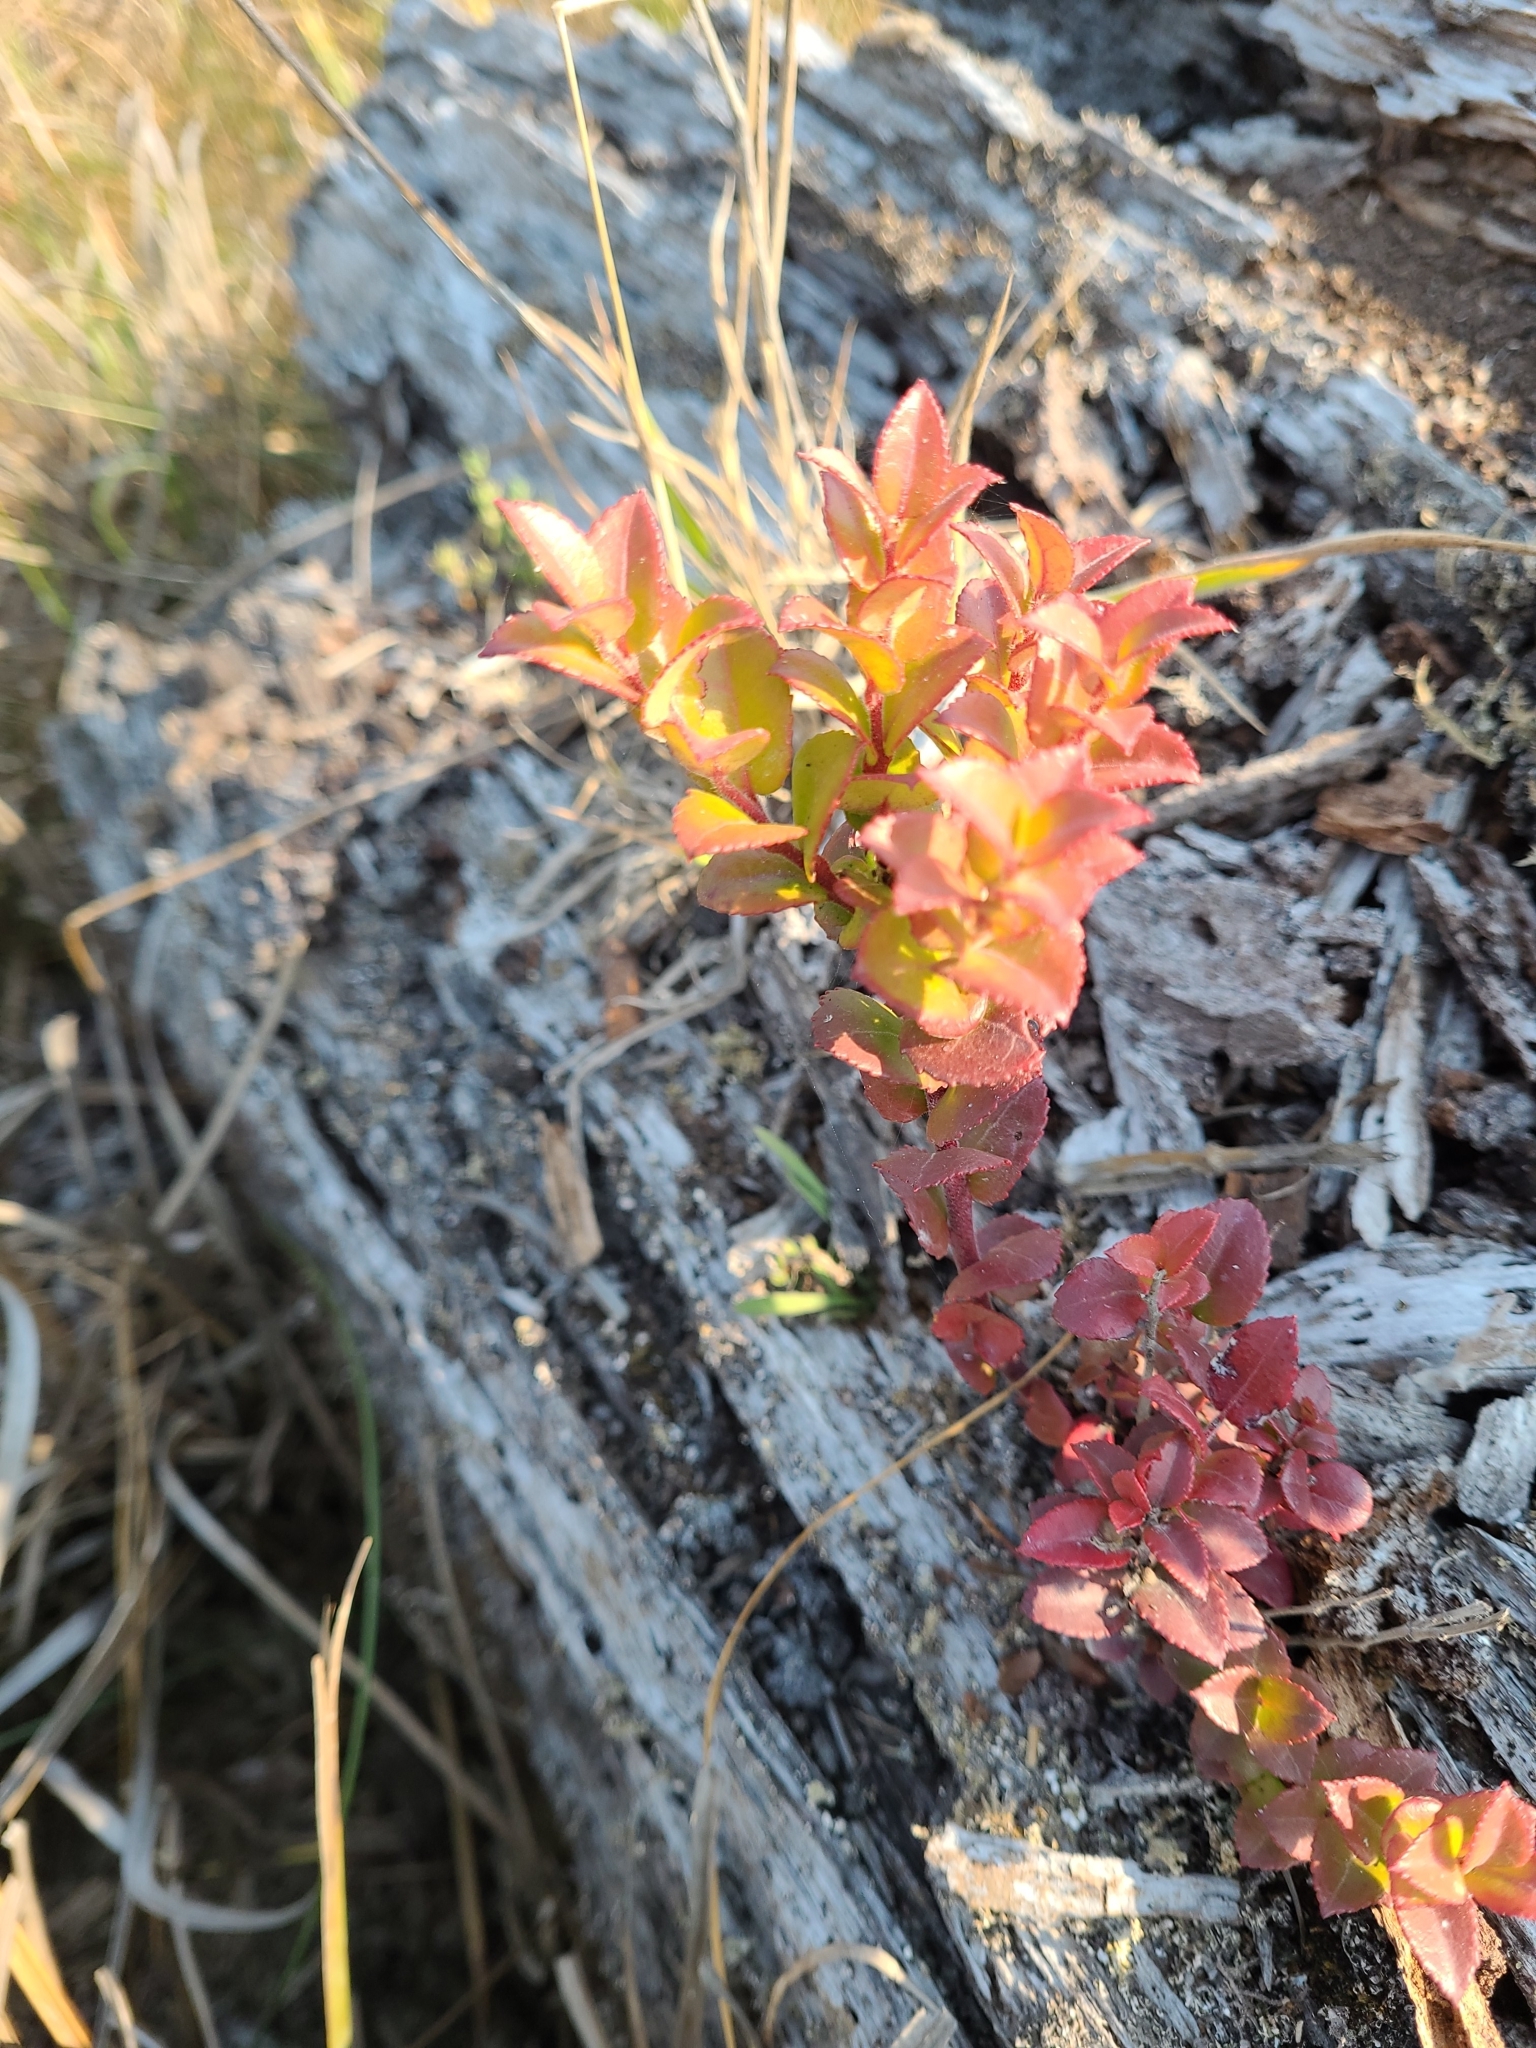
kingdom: Plantae
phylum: Tracheophyta
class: Magnoliopsida
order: Ericales
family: Ericaceae
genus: Vaccinium
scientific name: Vaccinium ovatum
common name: California-huckleberry
